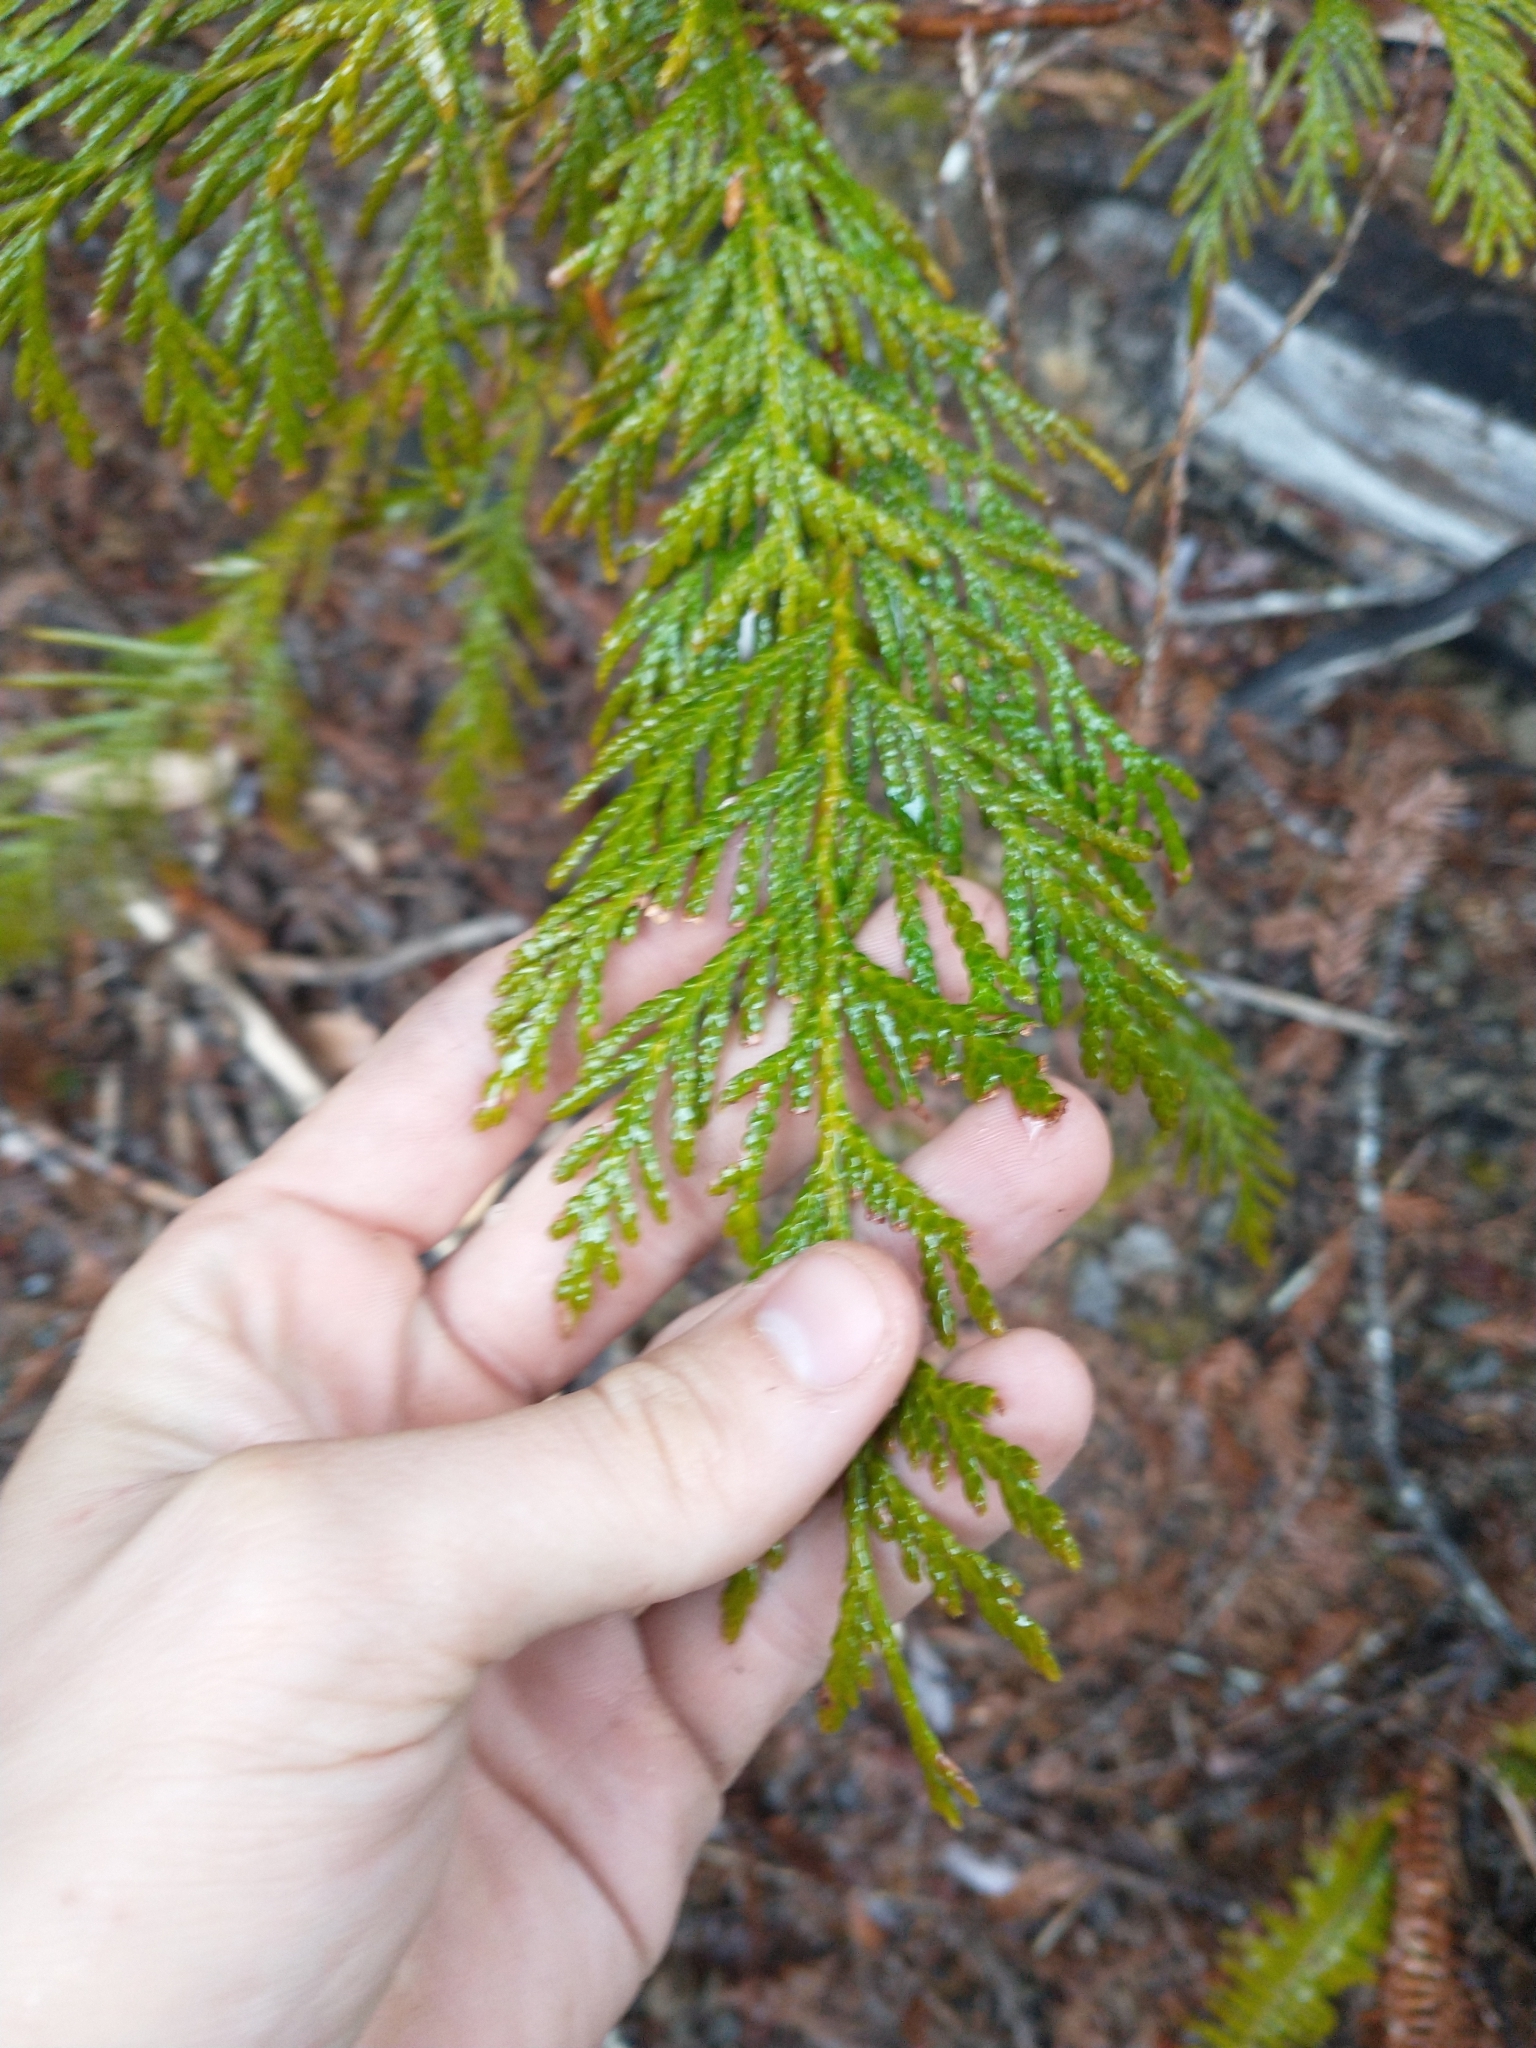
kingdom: Plantae
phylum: Tracheophyta
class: Pinopsida
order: Pinales
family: Cupressaceae
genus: Thuja
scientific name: Thuja plicata
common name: Western red-cedar
